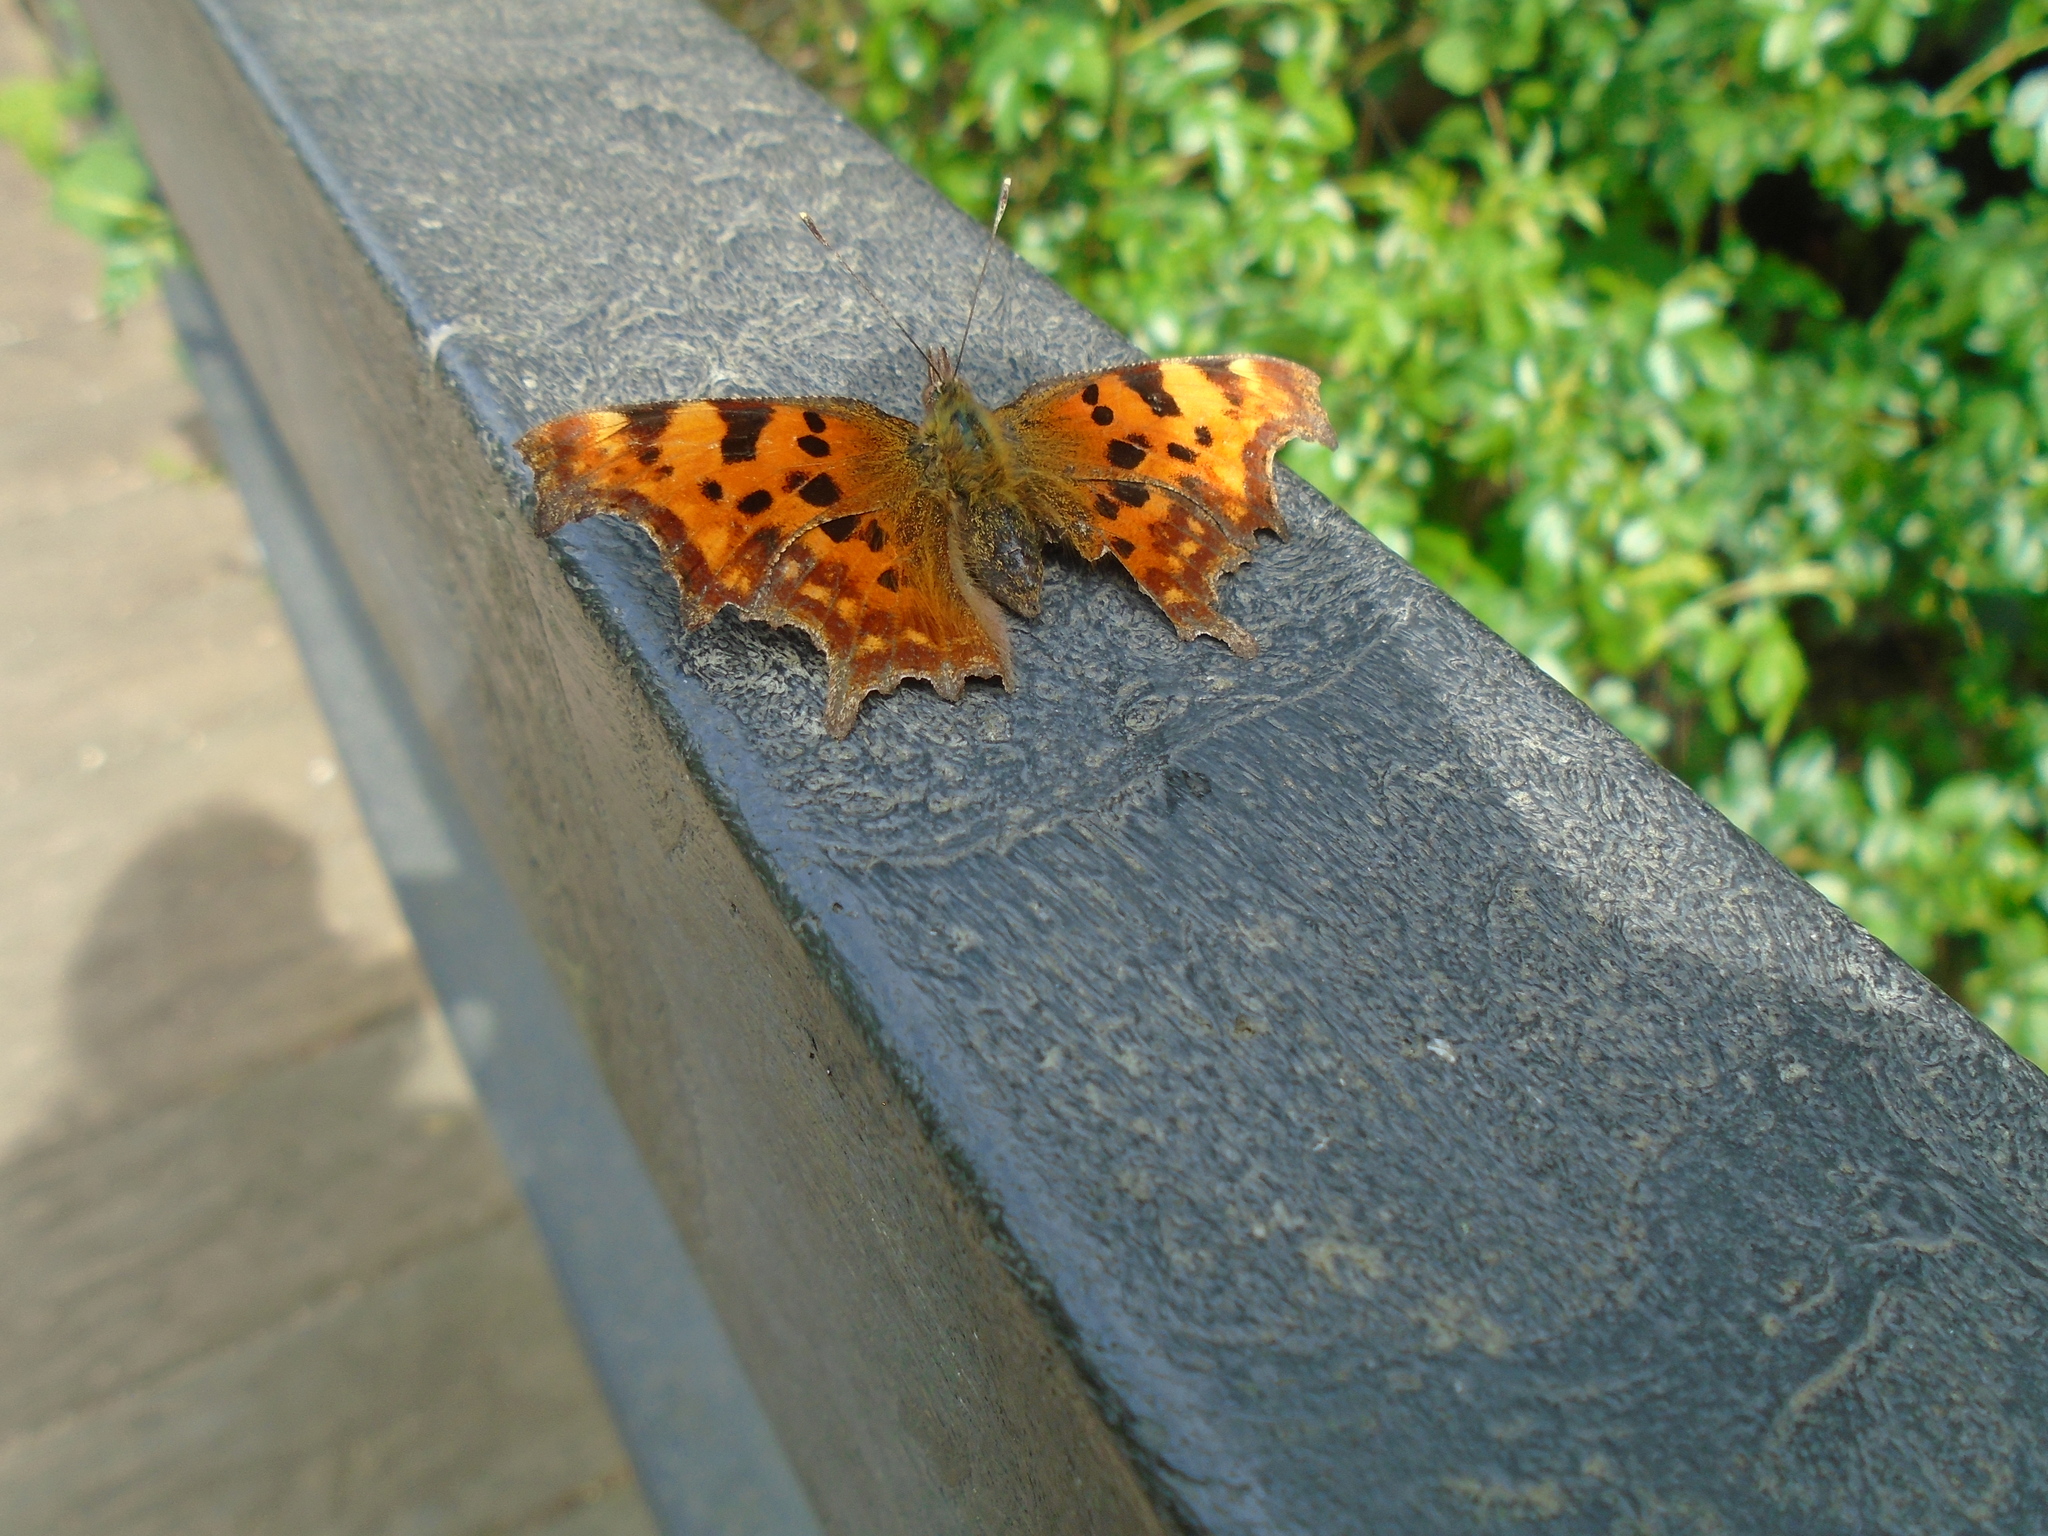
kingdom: Animalia
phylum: Arthropoda
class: Insecta
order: Lepidoptera
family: Nymphalidae
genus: Polygonia
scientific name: Polygonia c-album
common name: Comma
